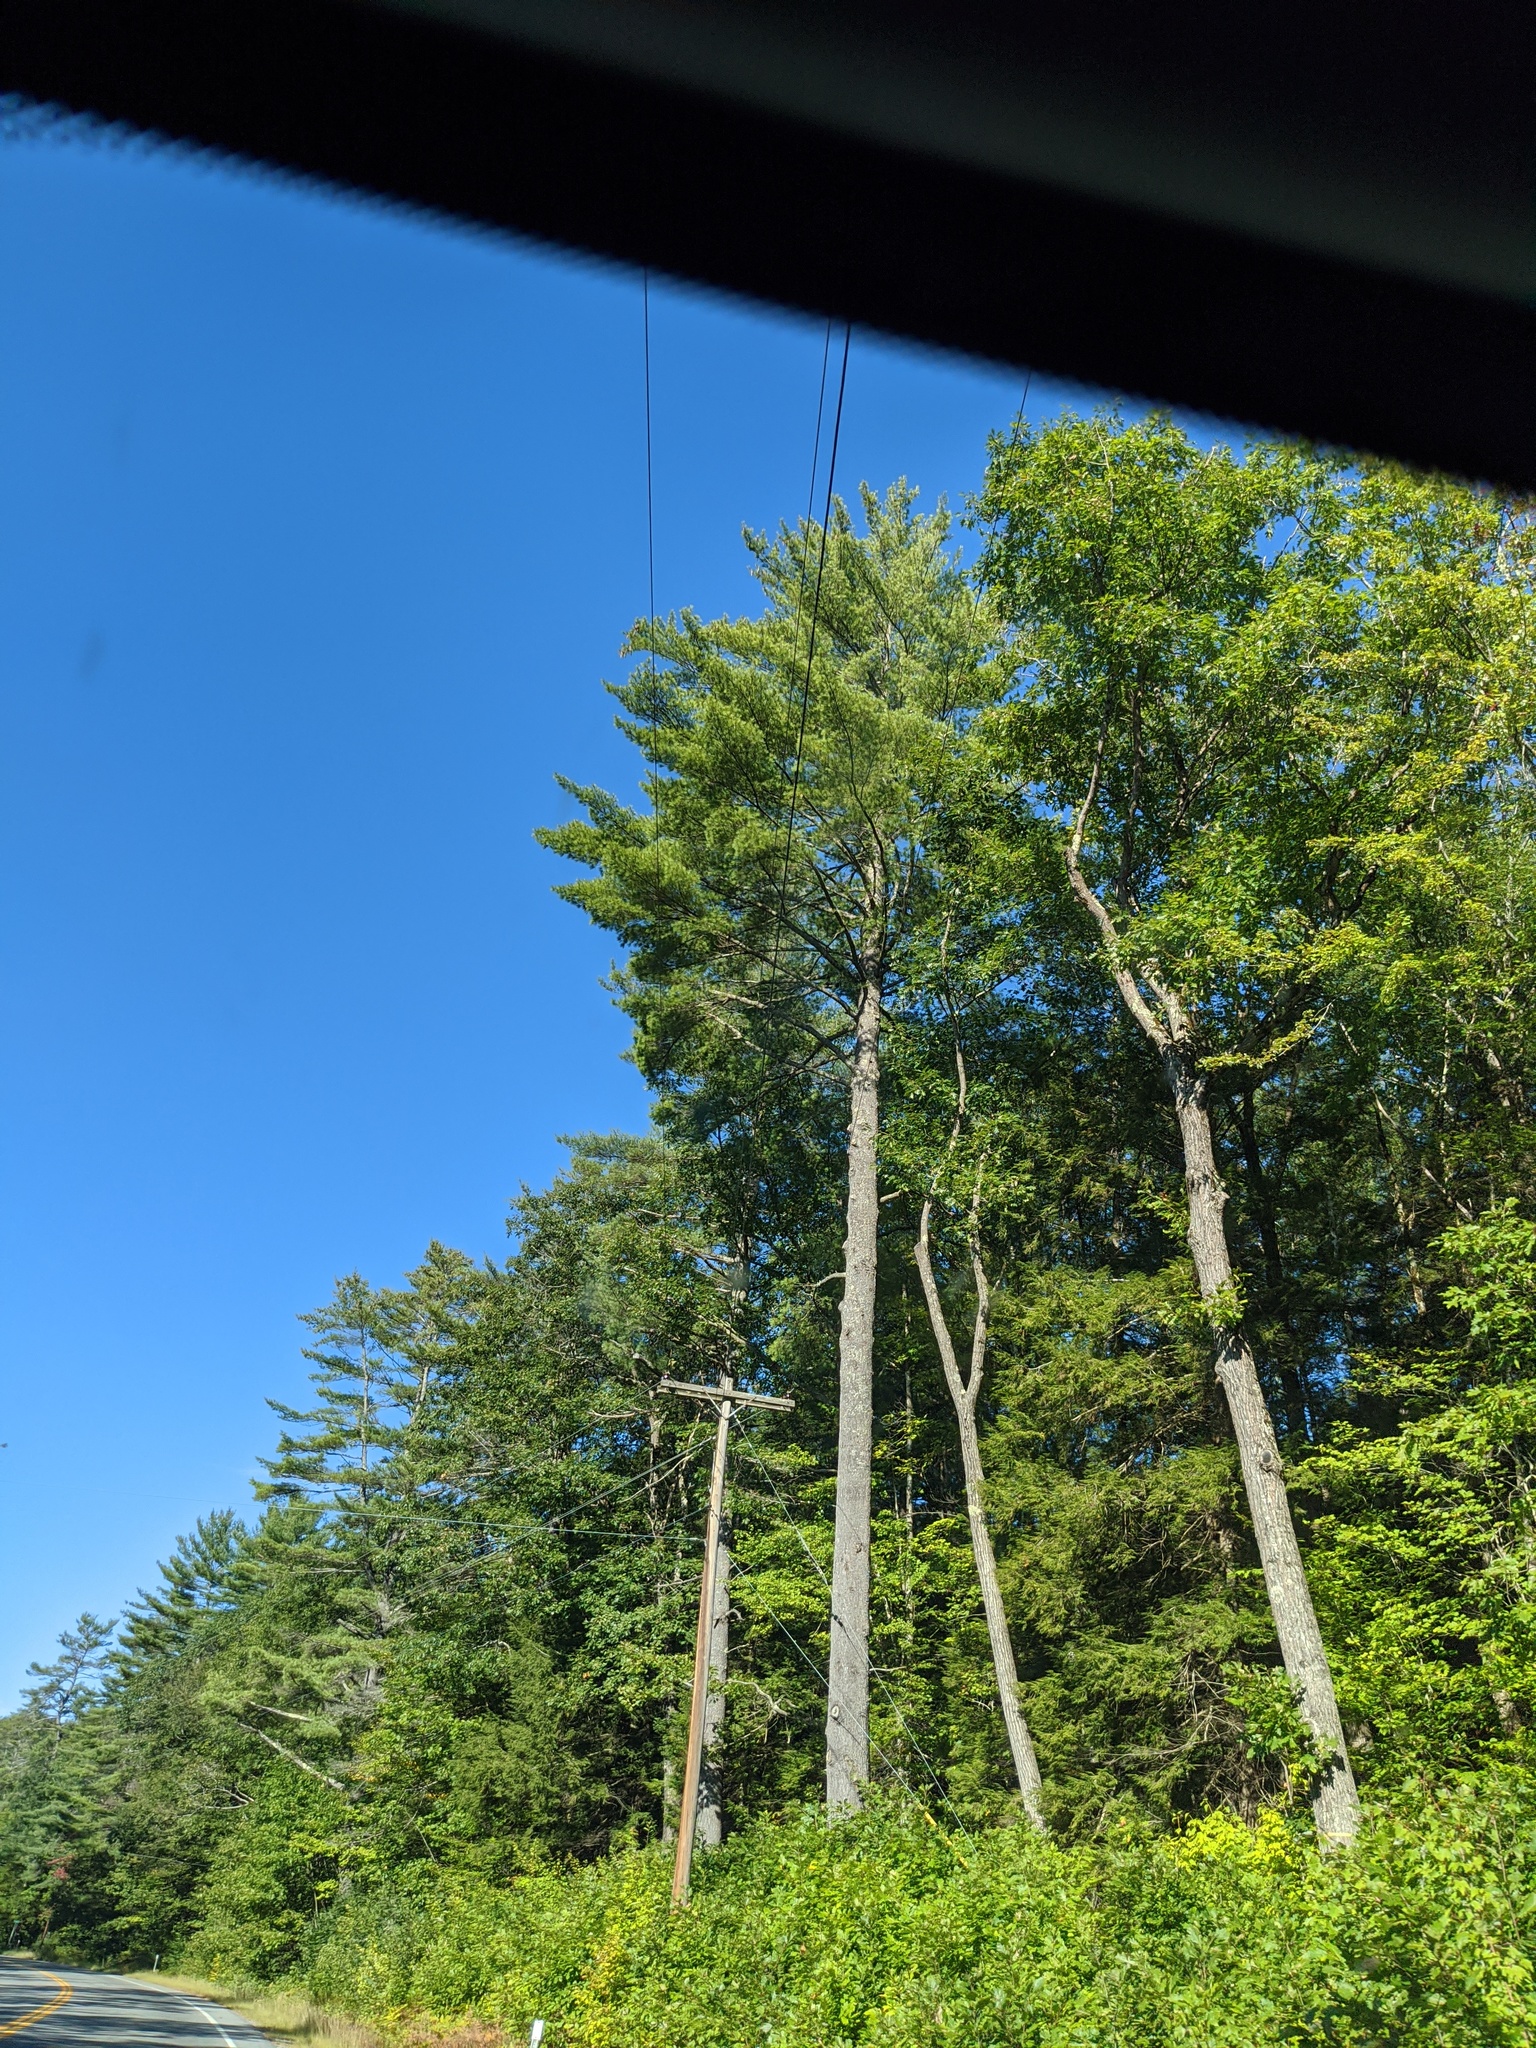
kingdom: Plantae
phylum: Tracheophyta
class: Pinopsida
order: Pinales
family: Pinaceae
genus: Pinus
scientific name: Pinus strobus
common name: Weymouth pine
